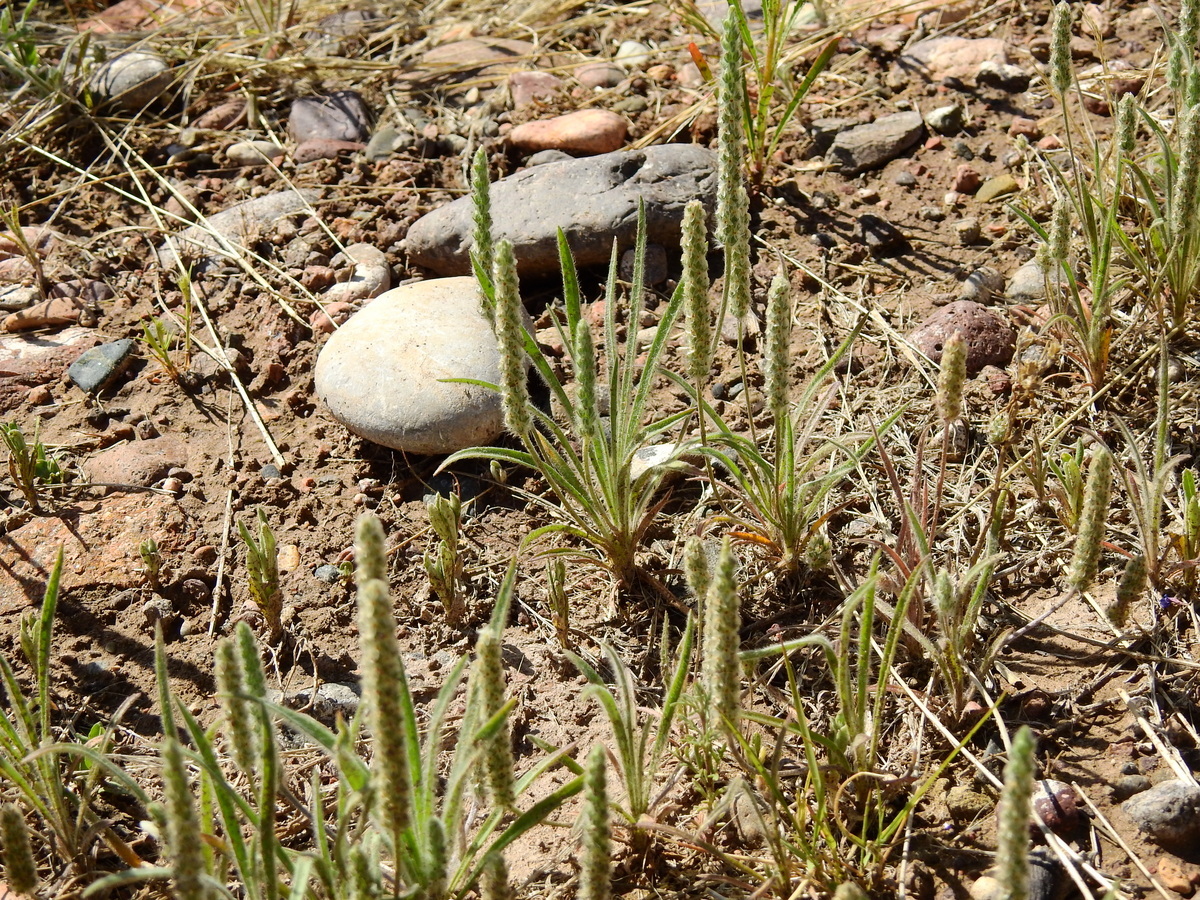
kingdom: Plantae
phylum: Tracheophyta
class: Magnoliopsida
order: Lamiales
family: Plantaginaceae
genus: Plantago
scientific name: Plantago patagonica
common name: Patagonia indian-wheat
